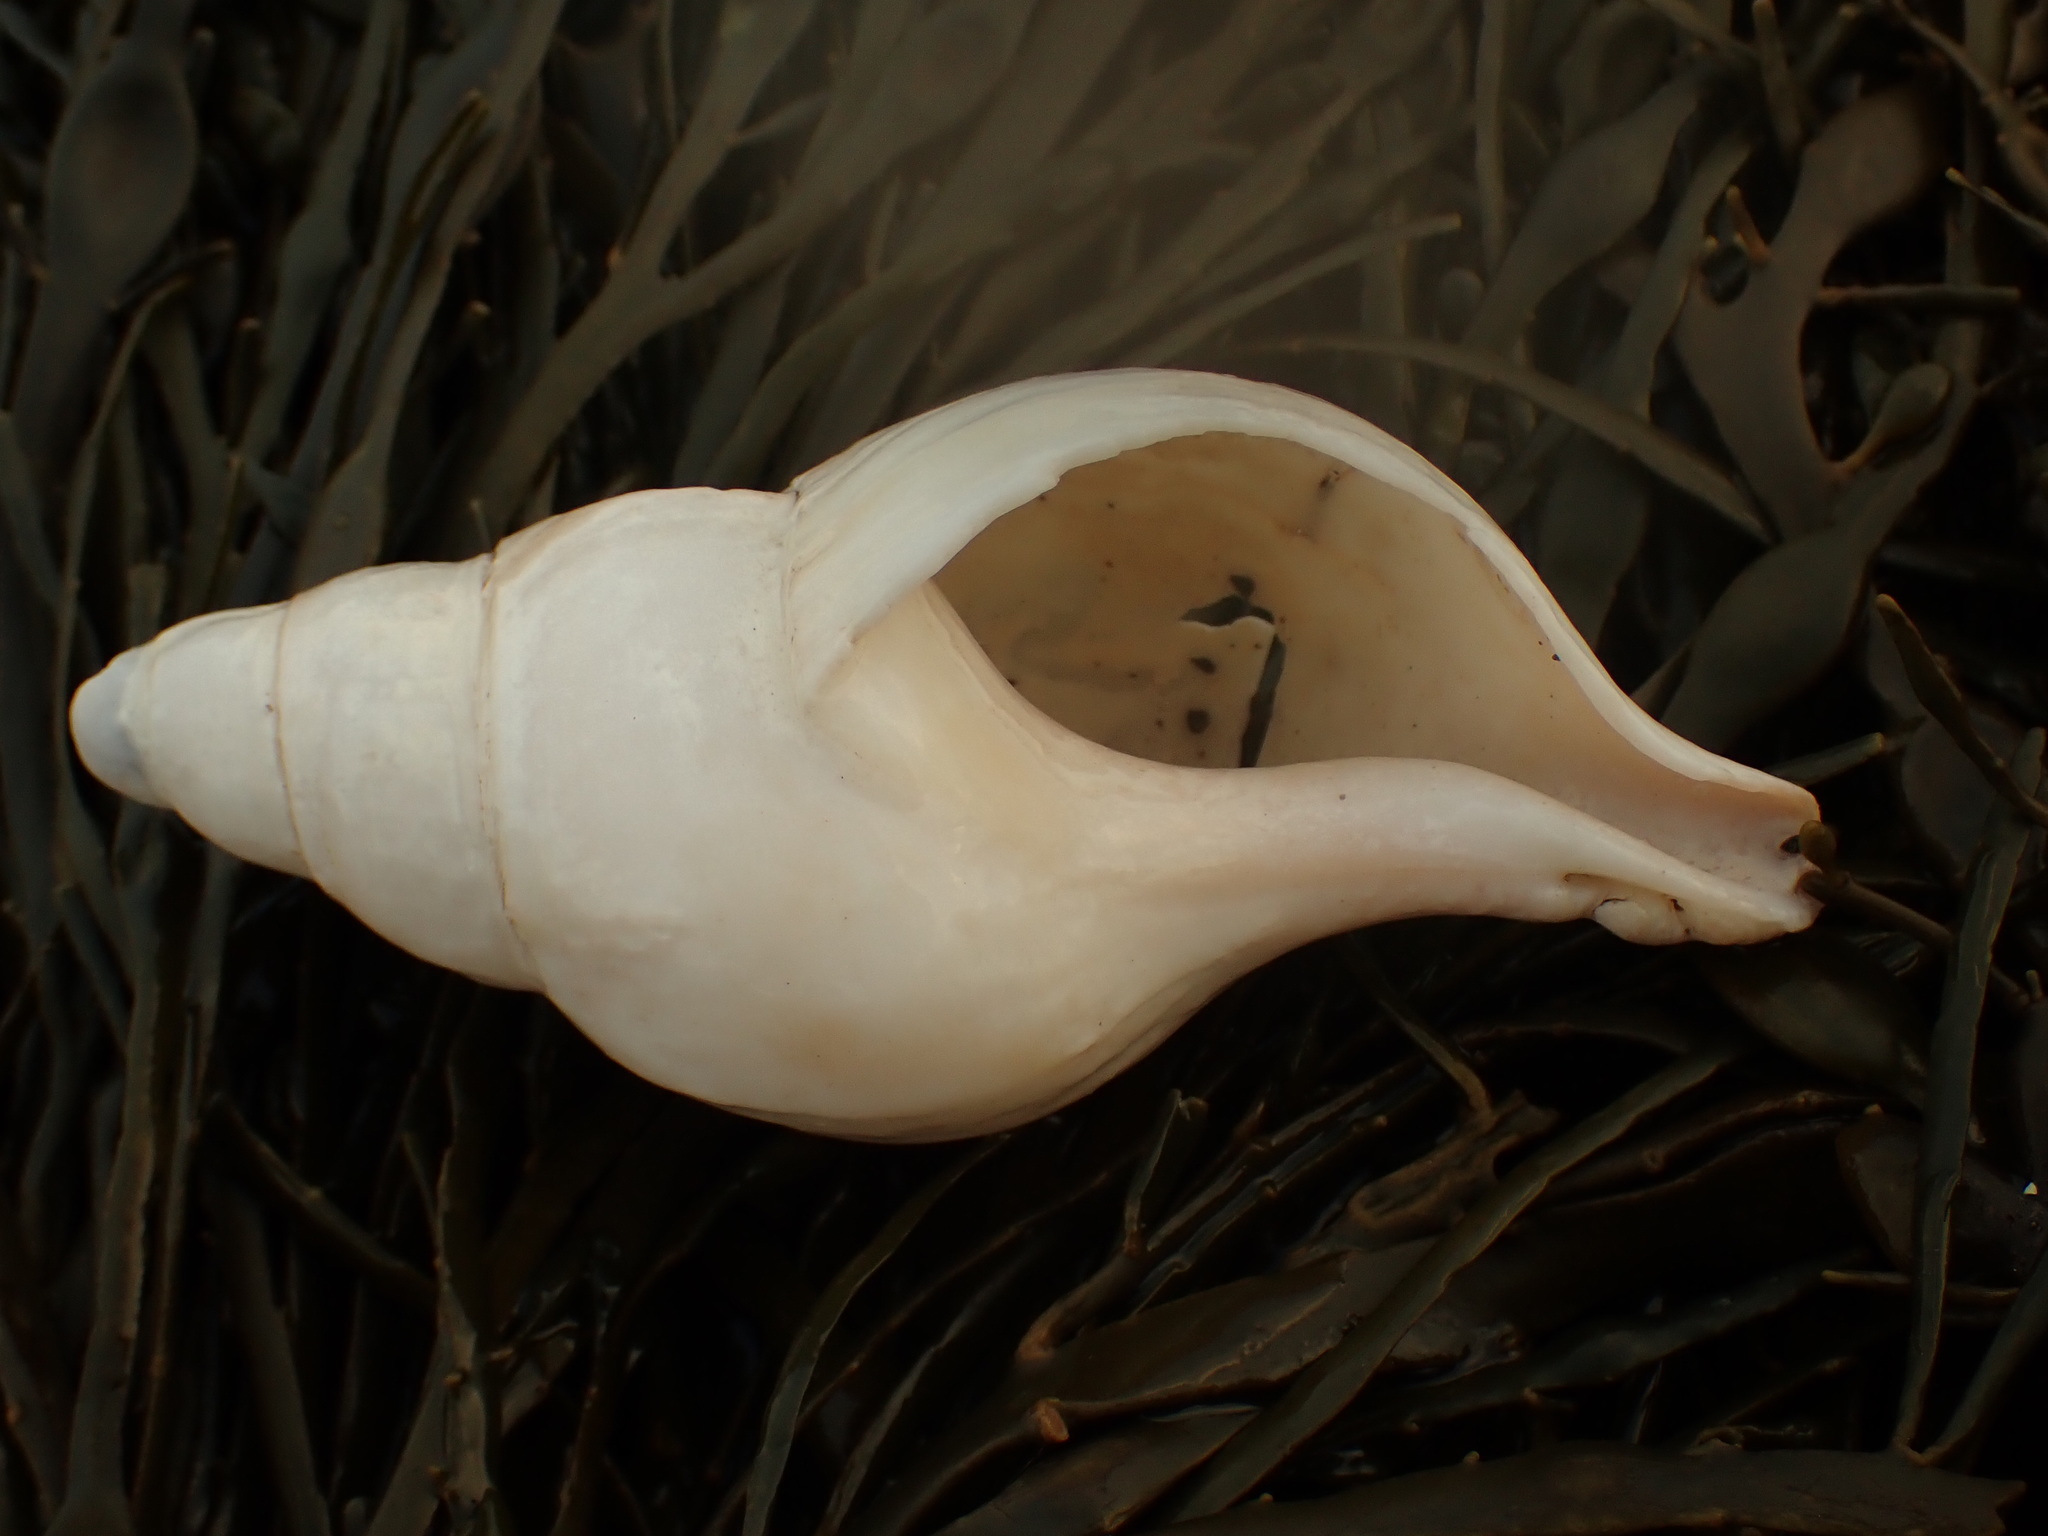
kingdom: Animalia
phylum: Mollusca
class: Gastropoda
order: Neogastropoda
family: Colidae
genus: Colus
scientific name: Colus stimpsoni
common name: Stimpson's colus
